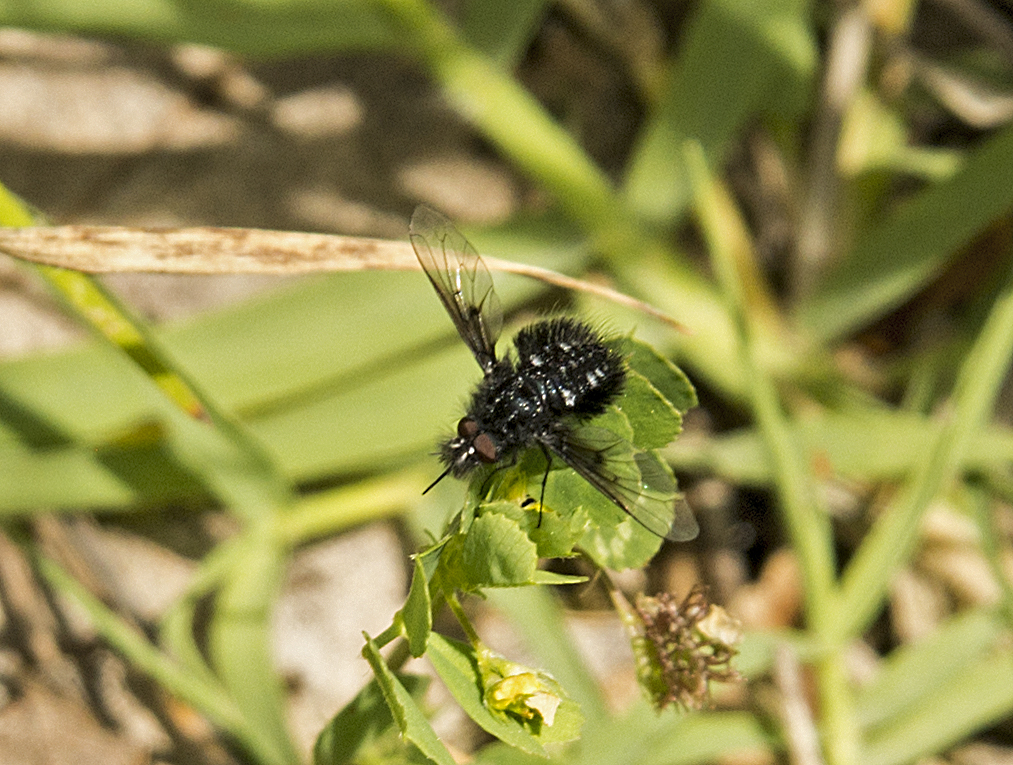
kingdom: Animalia
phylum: Arthropoda
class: Insecta
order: Diptera
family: Bombyliidae
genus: Bombylella
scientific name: Bombylella atra
